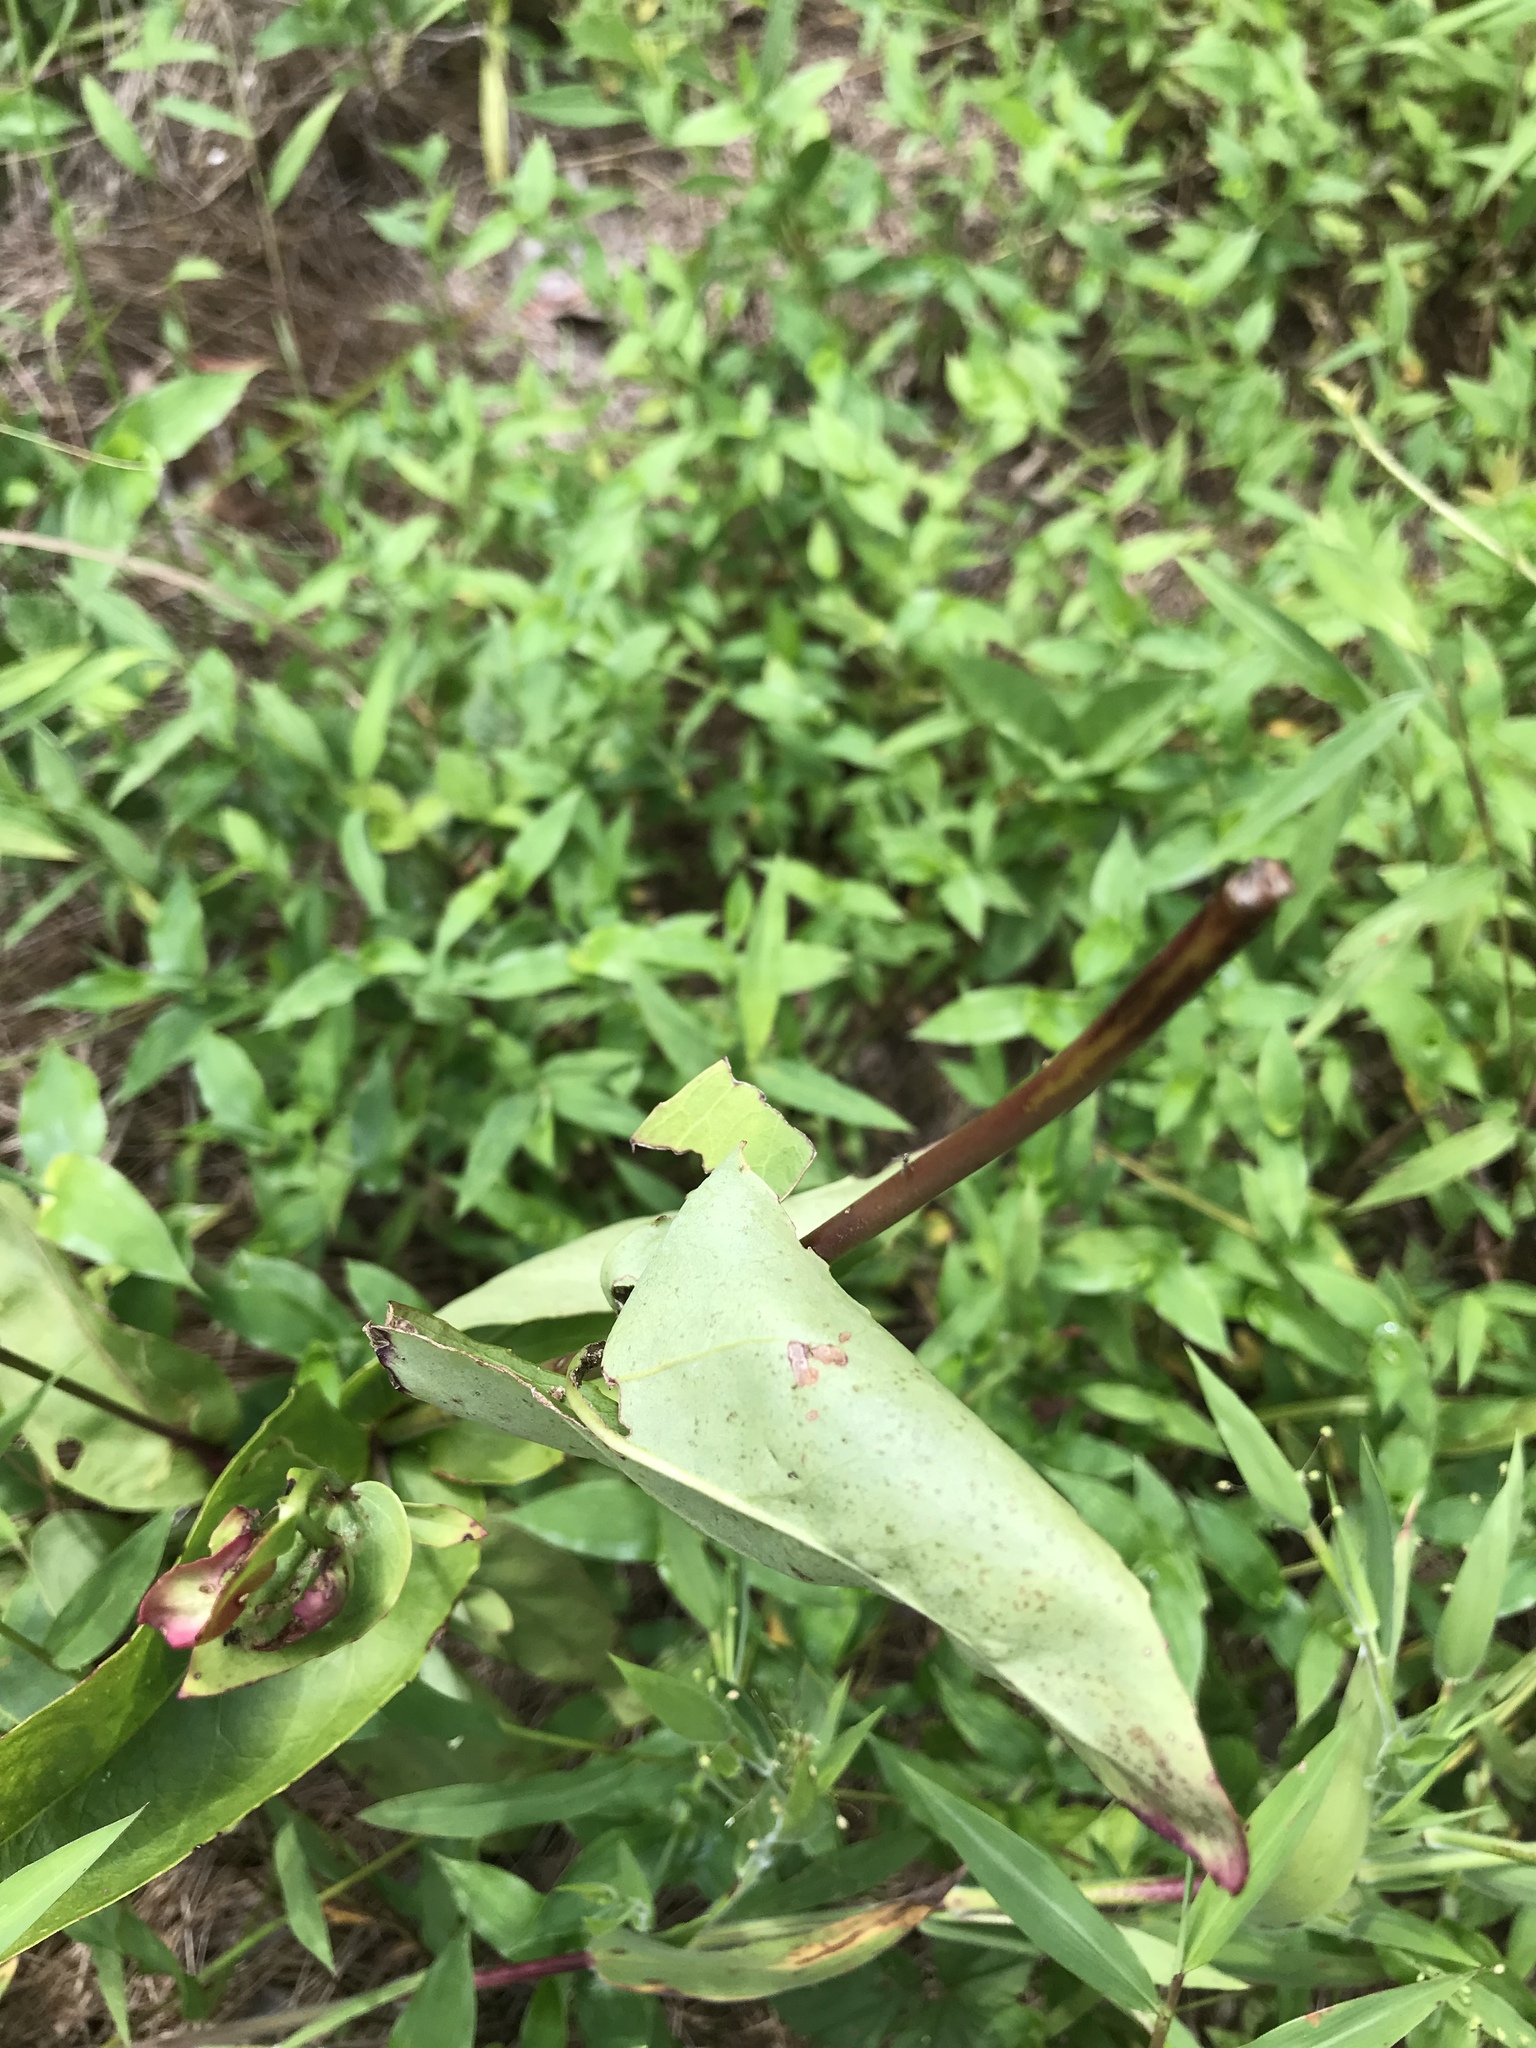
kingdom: Plantae
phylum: Tracheophyta
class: Magnoliopsida
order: Lamiales
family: Plantaginaceae
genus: Penstemon
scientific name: Penstemon
